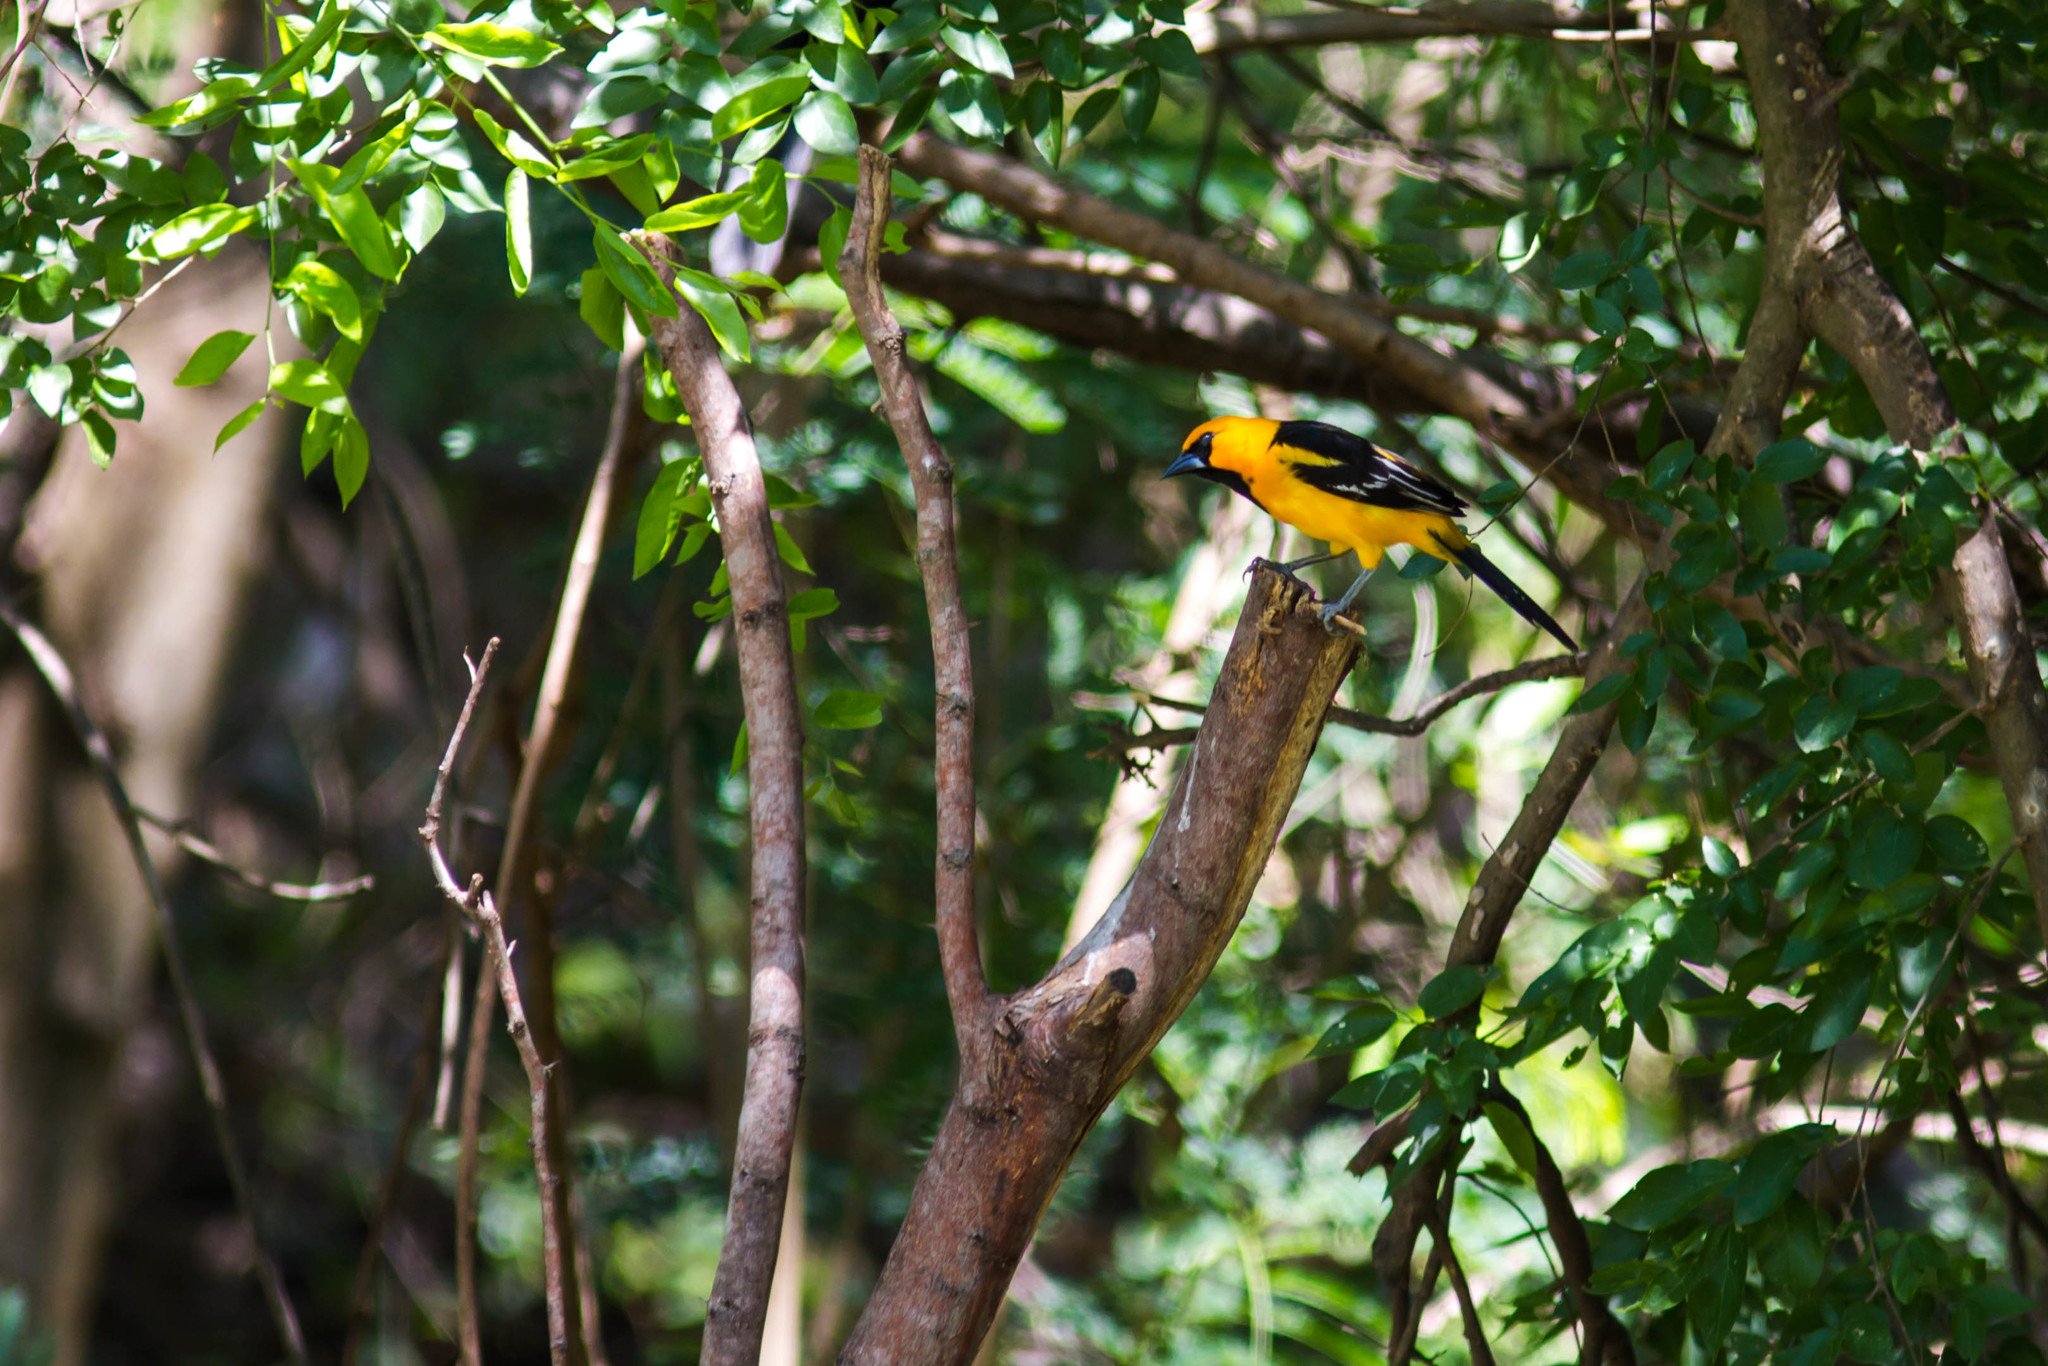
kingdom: Animalia
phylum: Chordata
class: Aves
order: Passeriformes
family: Icteridae
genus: Icterus
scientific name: Icterus gularis
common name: Altamira oriole
